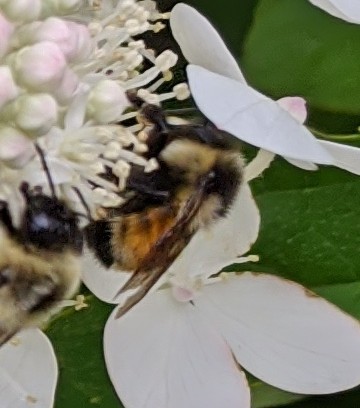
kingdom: Animalia
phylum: Arthropoda
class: Insecta
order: Hymenoptera
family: Apidae
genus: Bombus
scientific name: Bombus ternarius
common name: Tri-colored bumble bee
